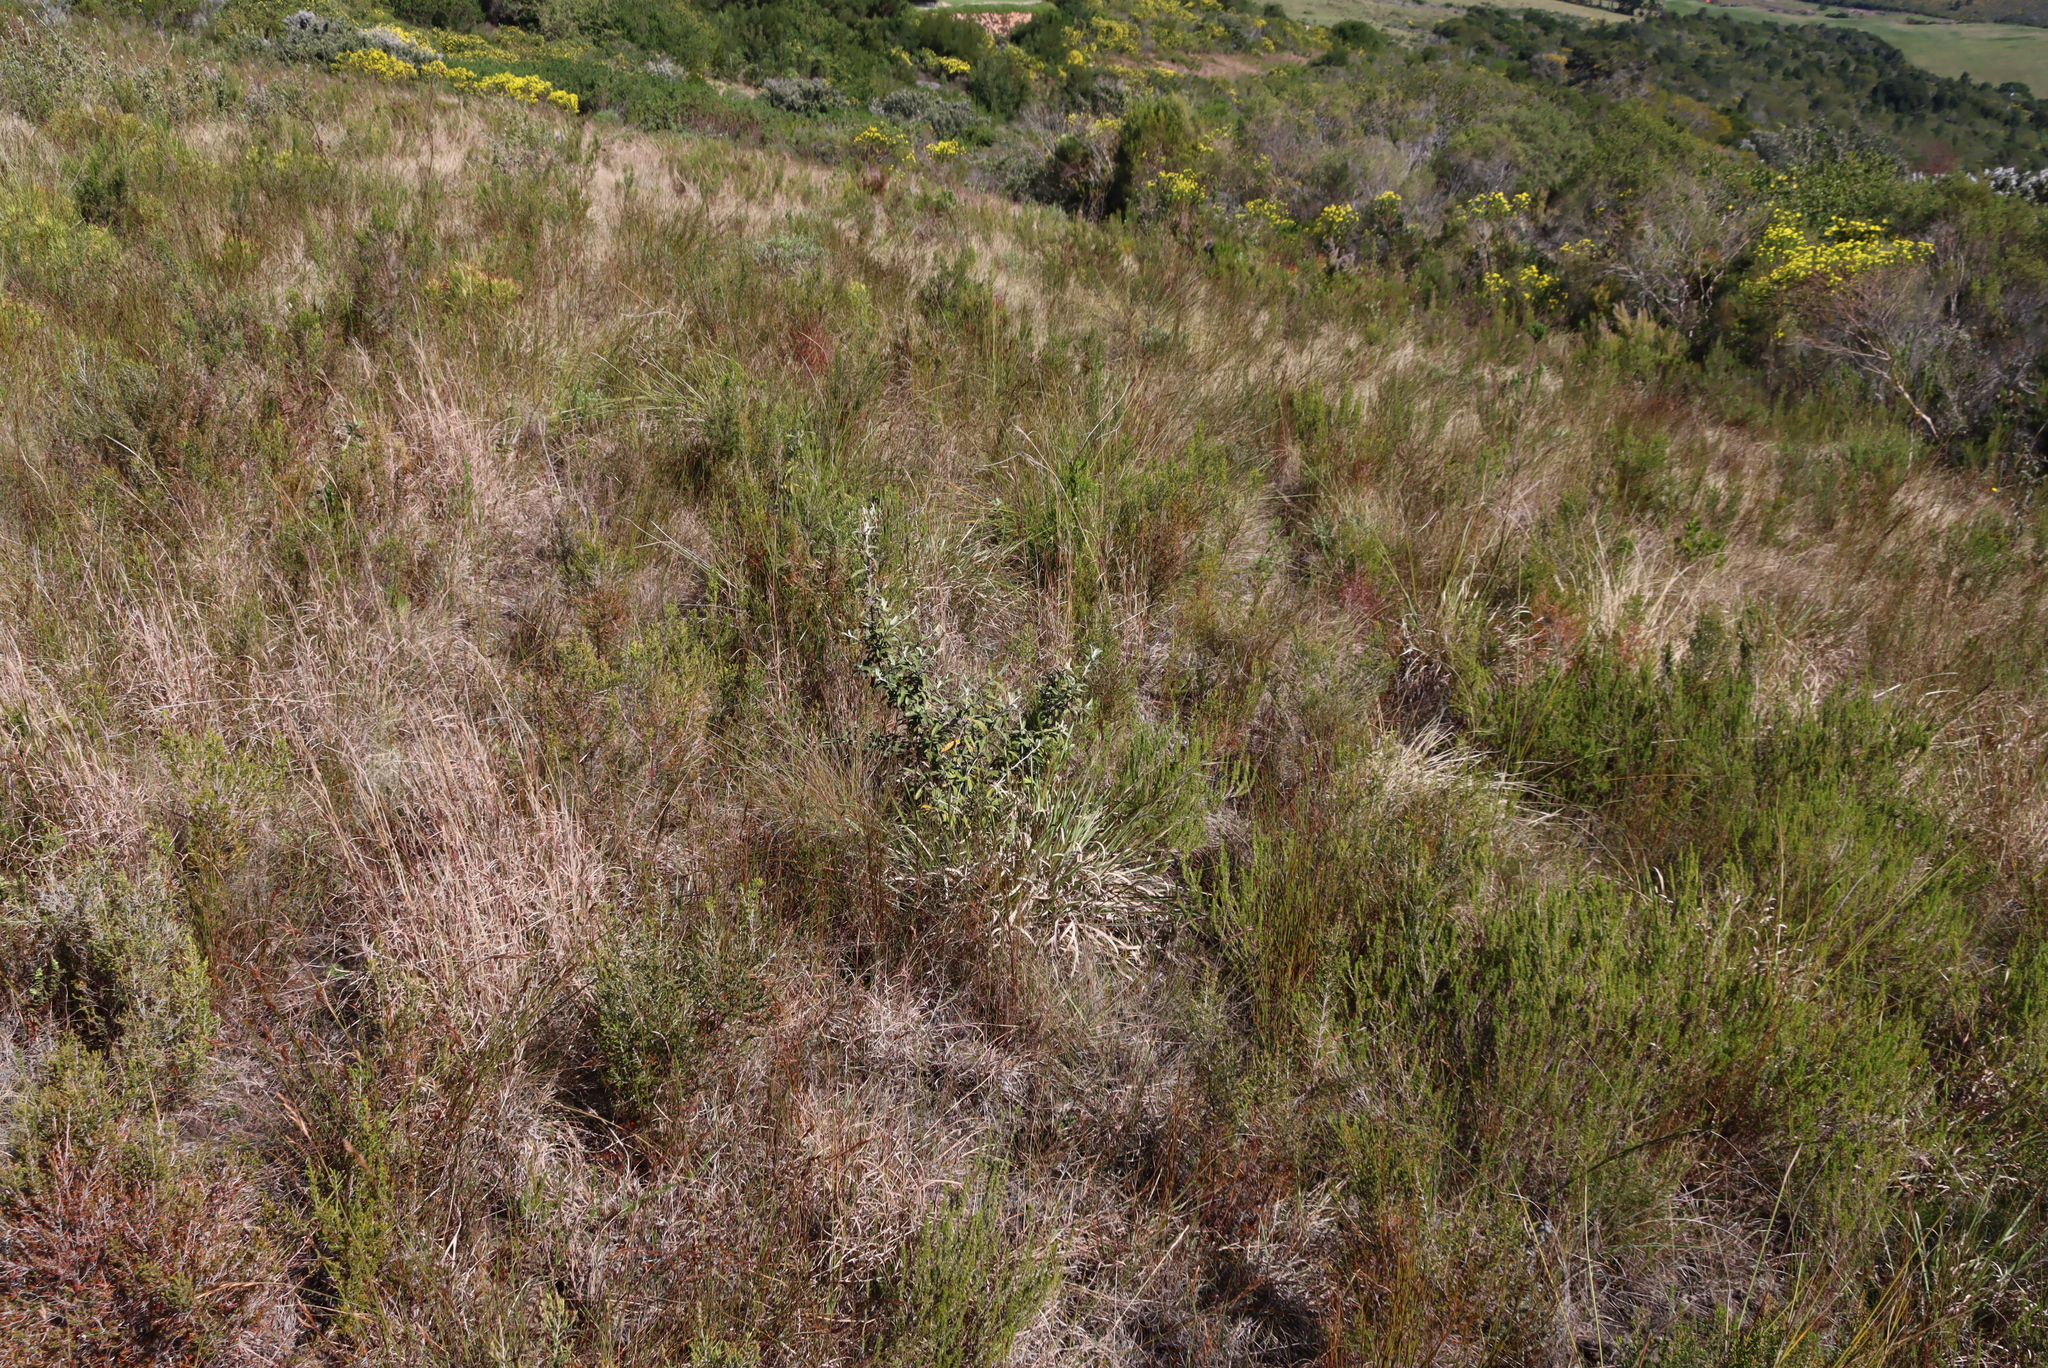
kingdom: Plantae
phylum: Tracheophyta
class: Magnoliopsida
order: Asterales
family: Asteraceae
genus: Tarchonanthus
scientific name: Tarchonanthus littoralis
